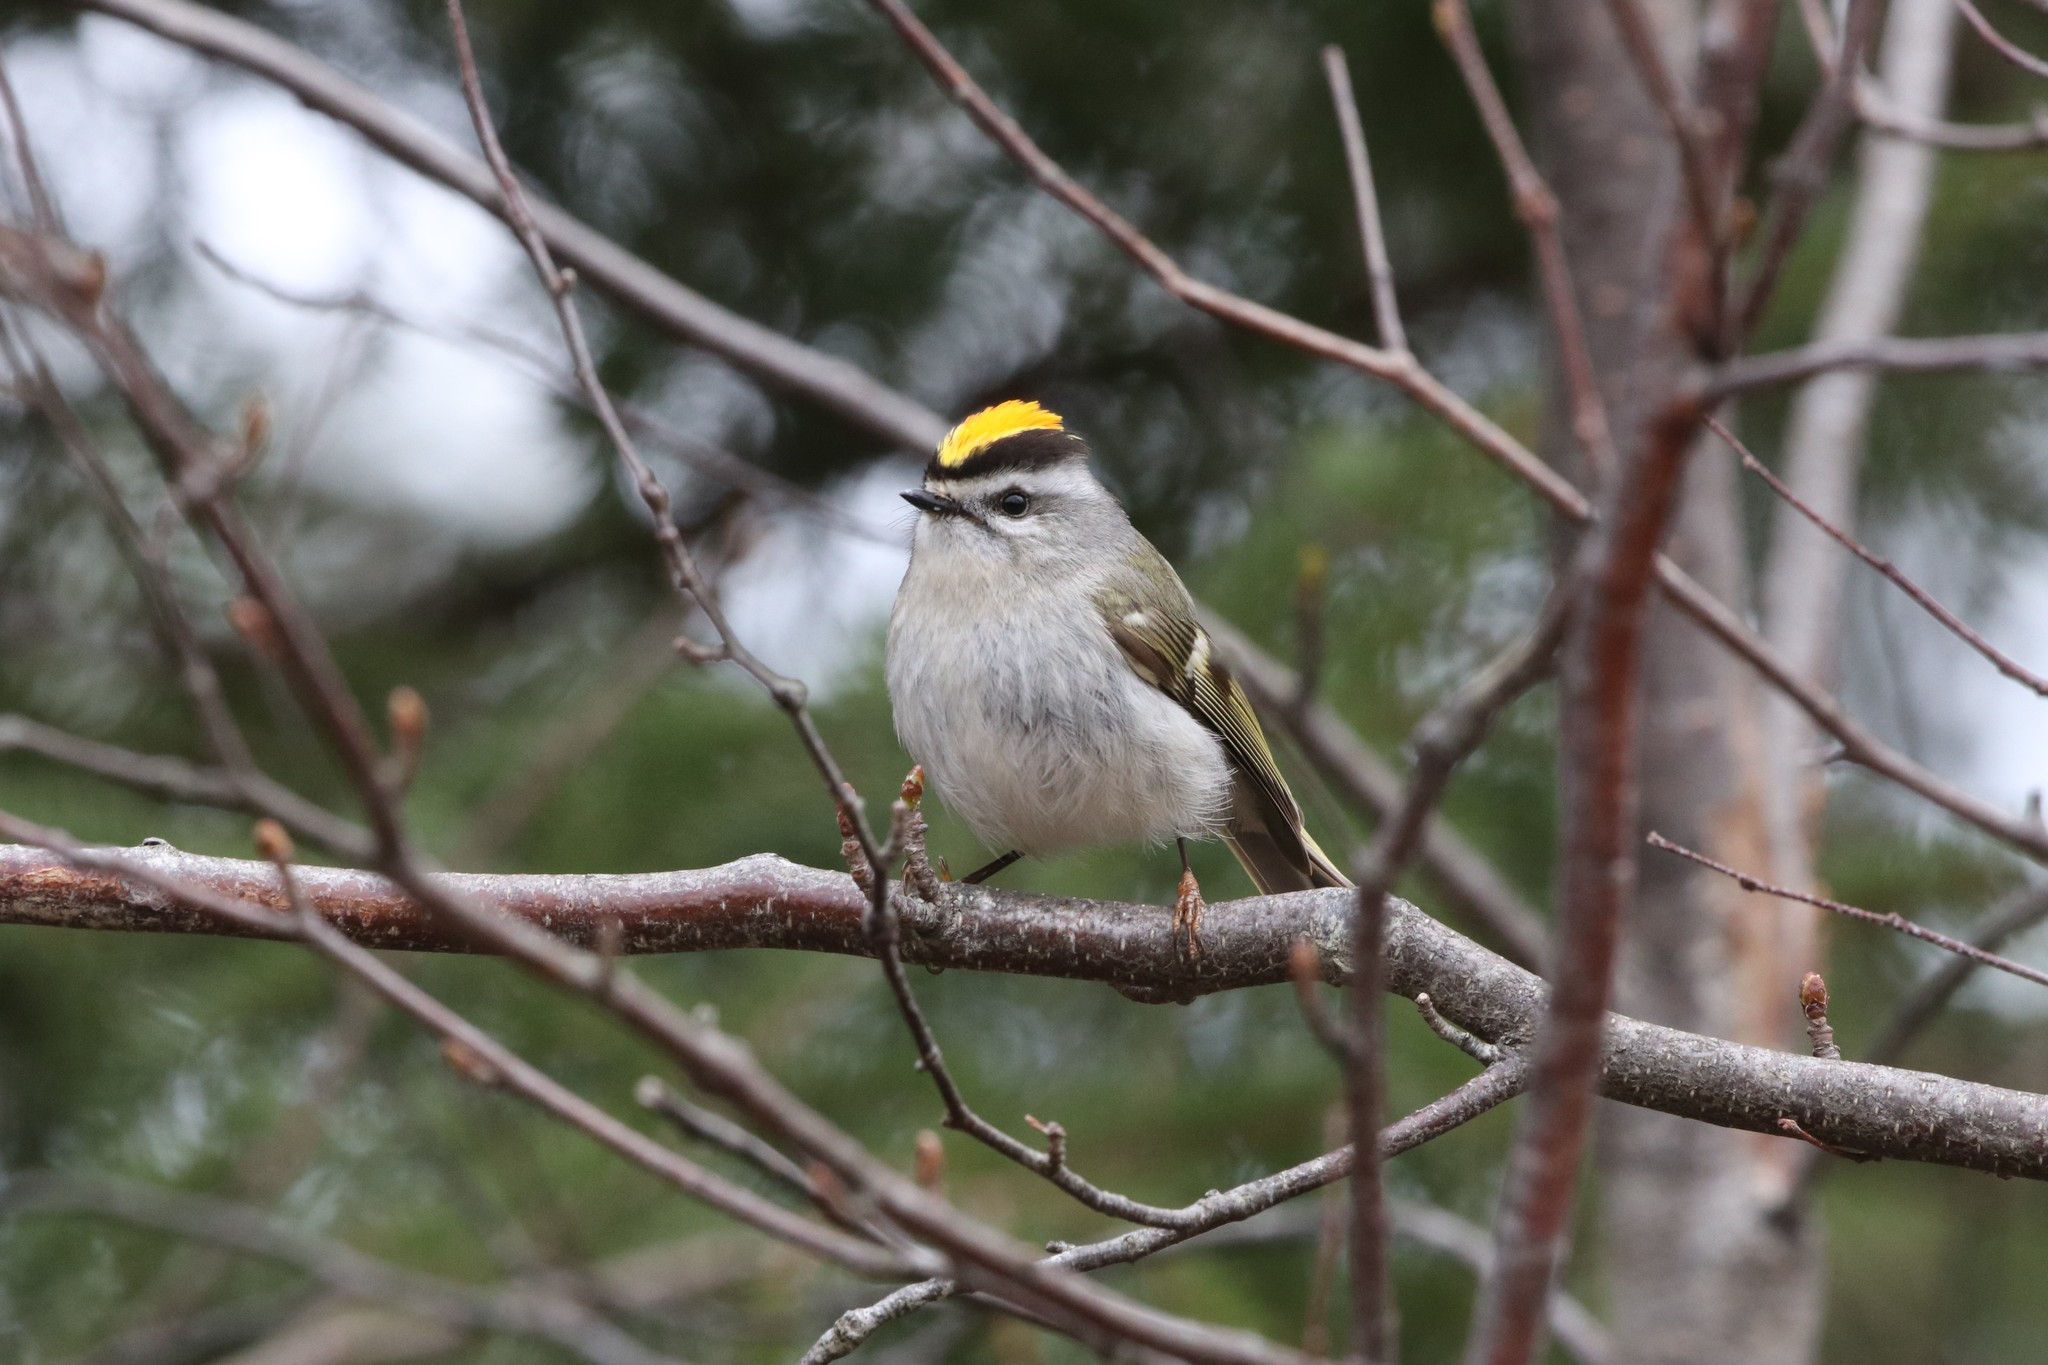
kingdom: Animalia
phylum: Chordata
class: Aves
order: Passeriformes
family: Regulidae
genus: Regulus
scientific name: Regulus satrapa
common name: Golden-crowned kinglet
